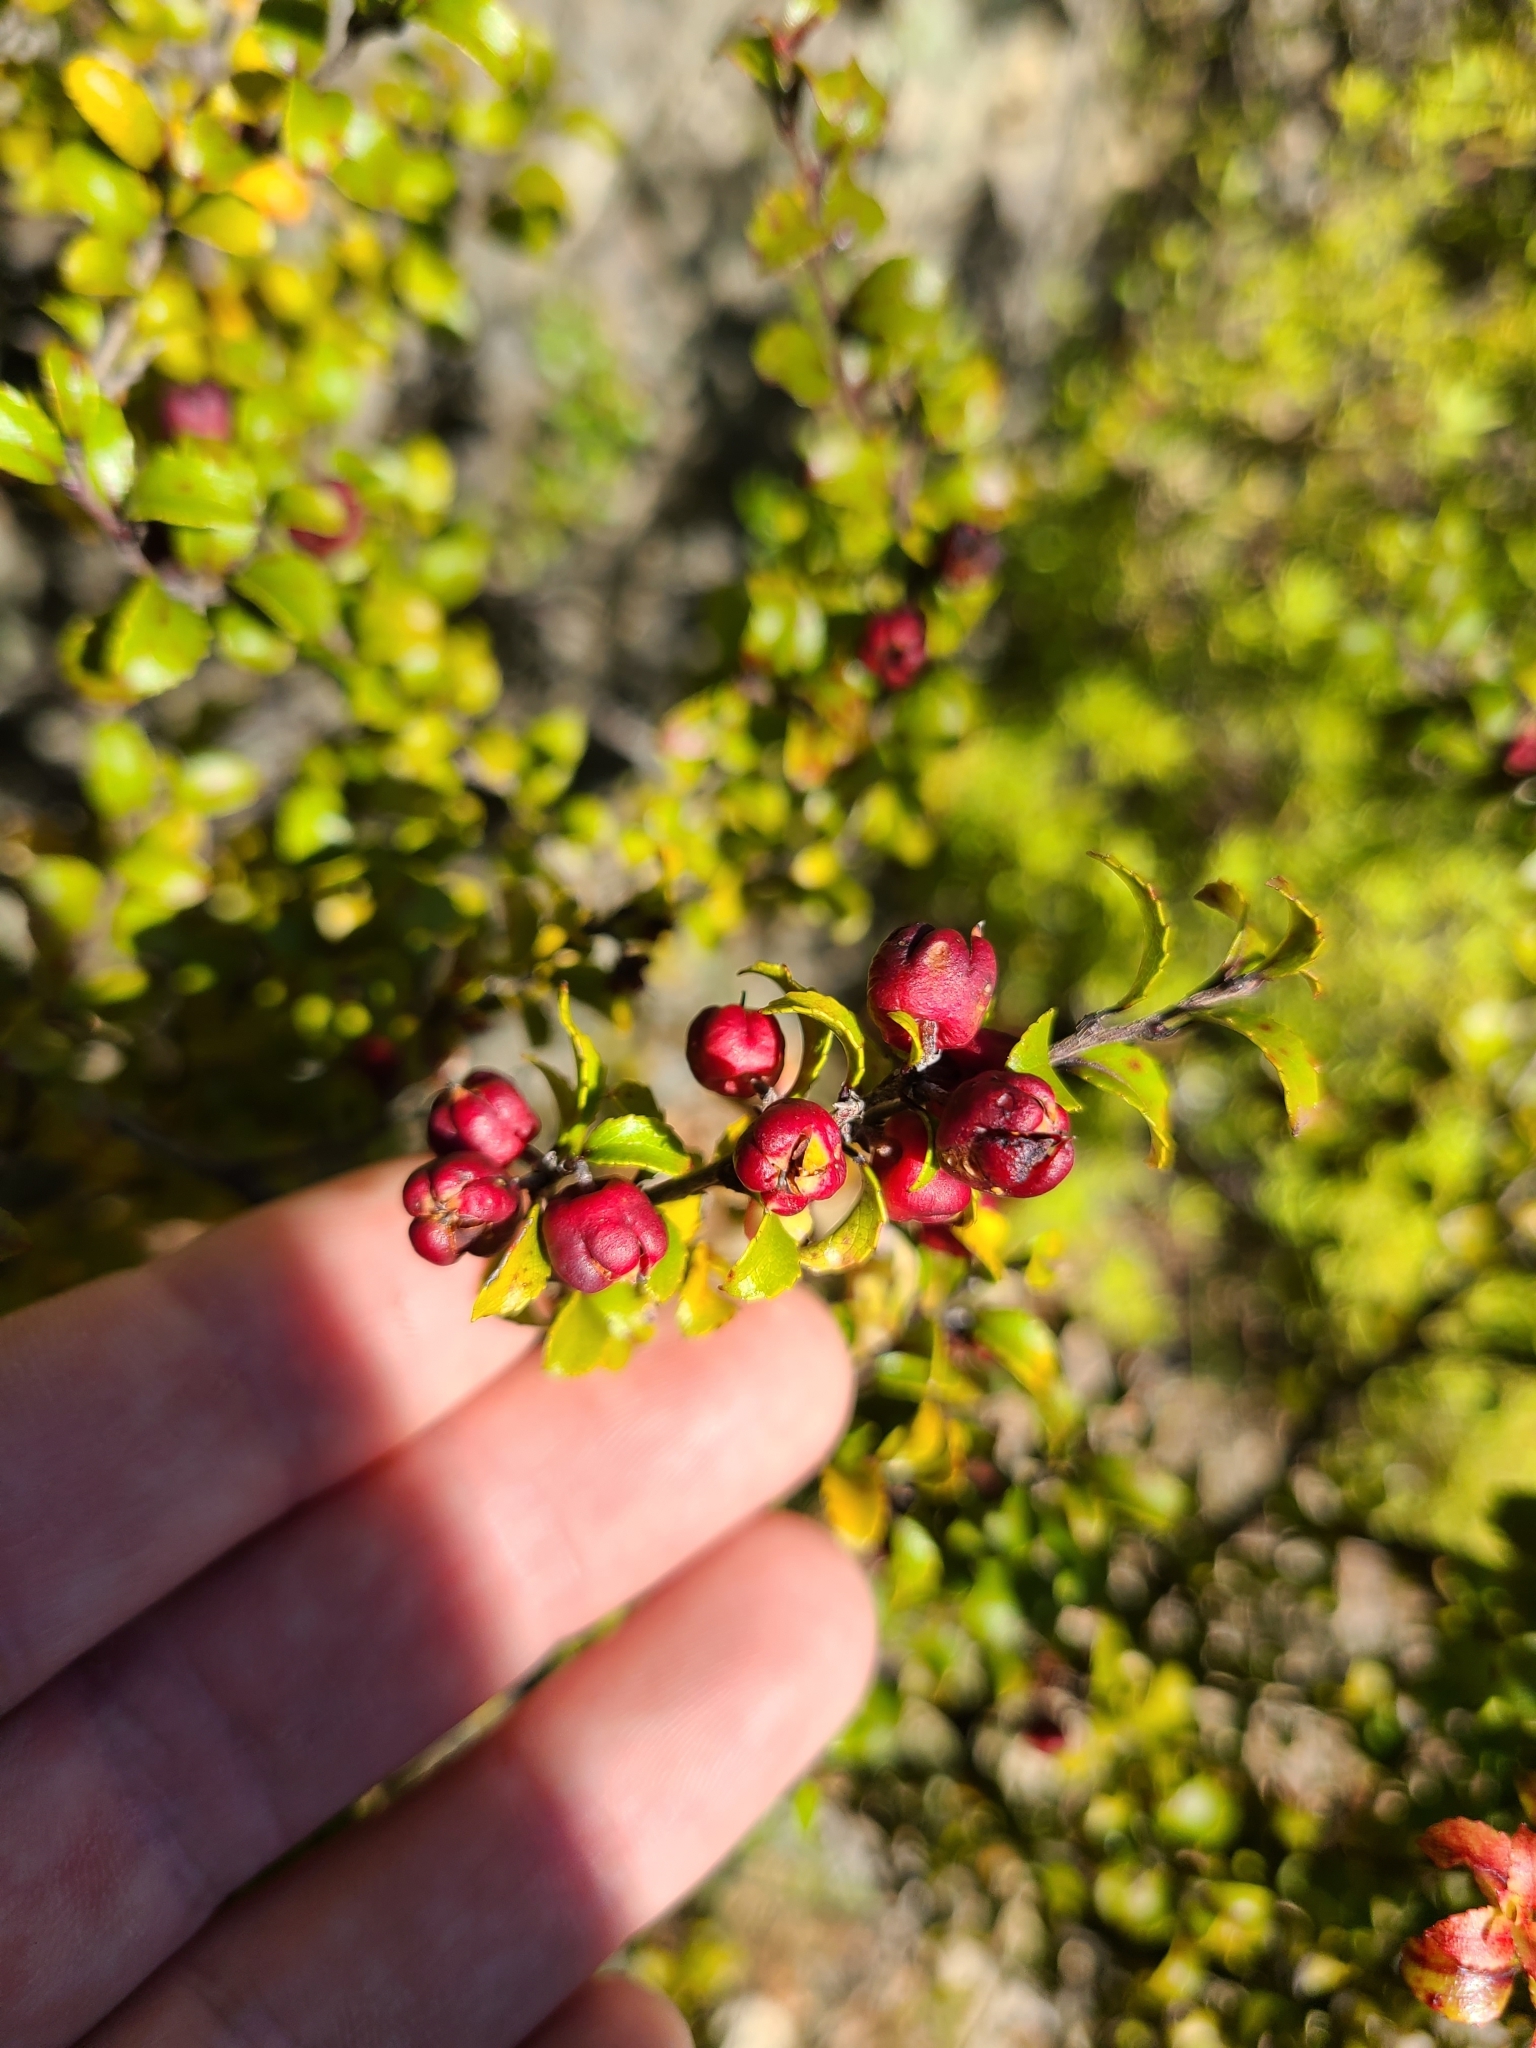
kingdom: Plantae
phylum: Tracheophyta
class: Magnoliopsida
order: Ericales
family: Ericaceae
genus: Gaultheria
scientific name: Gaultheria antipoda
